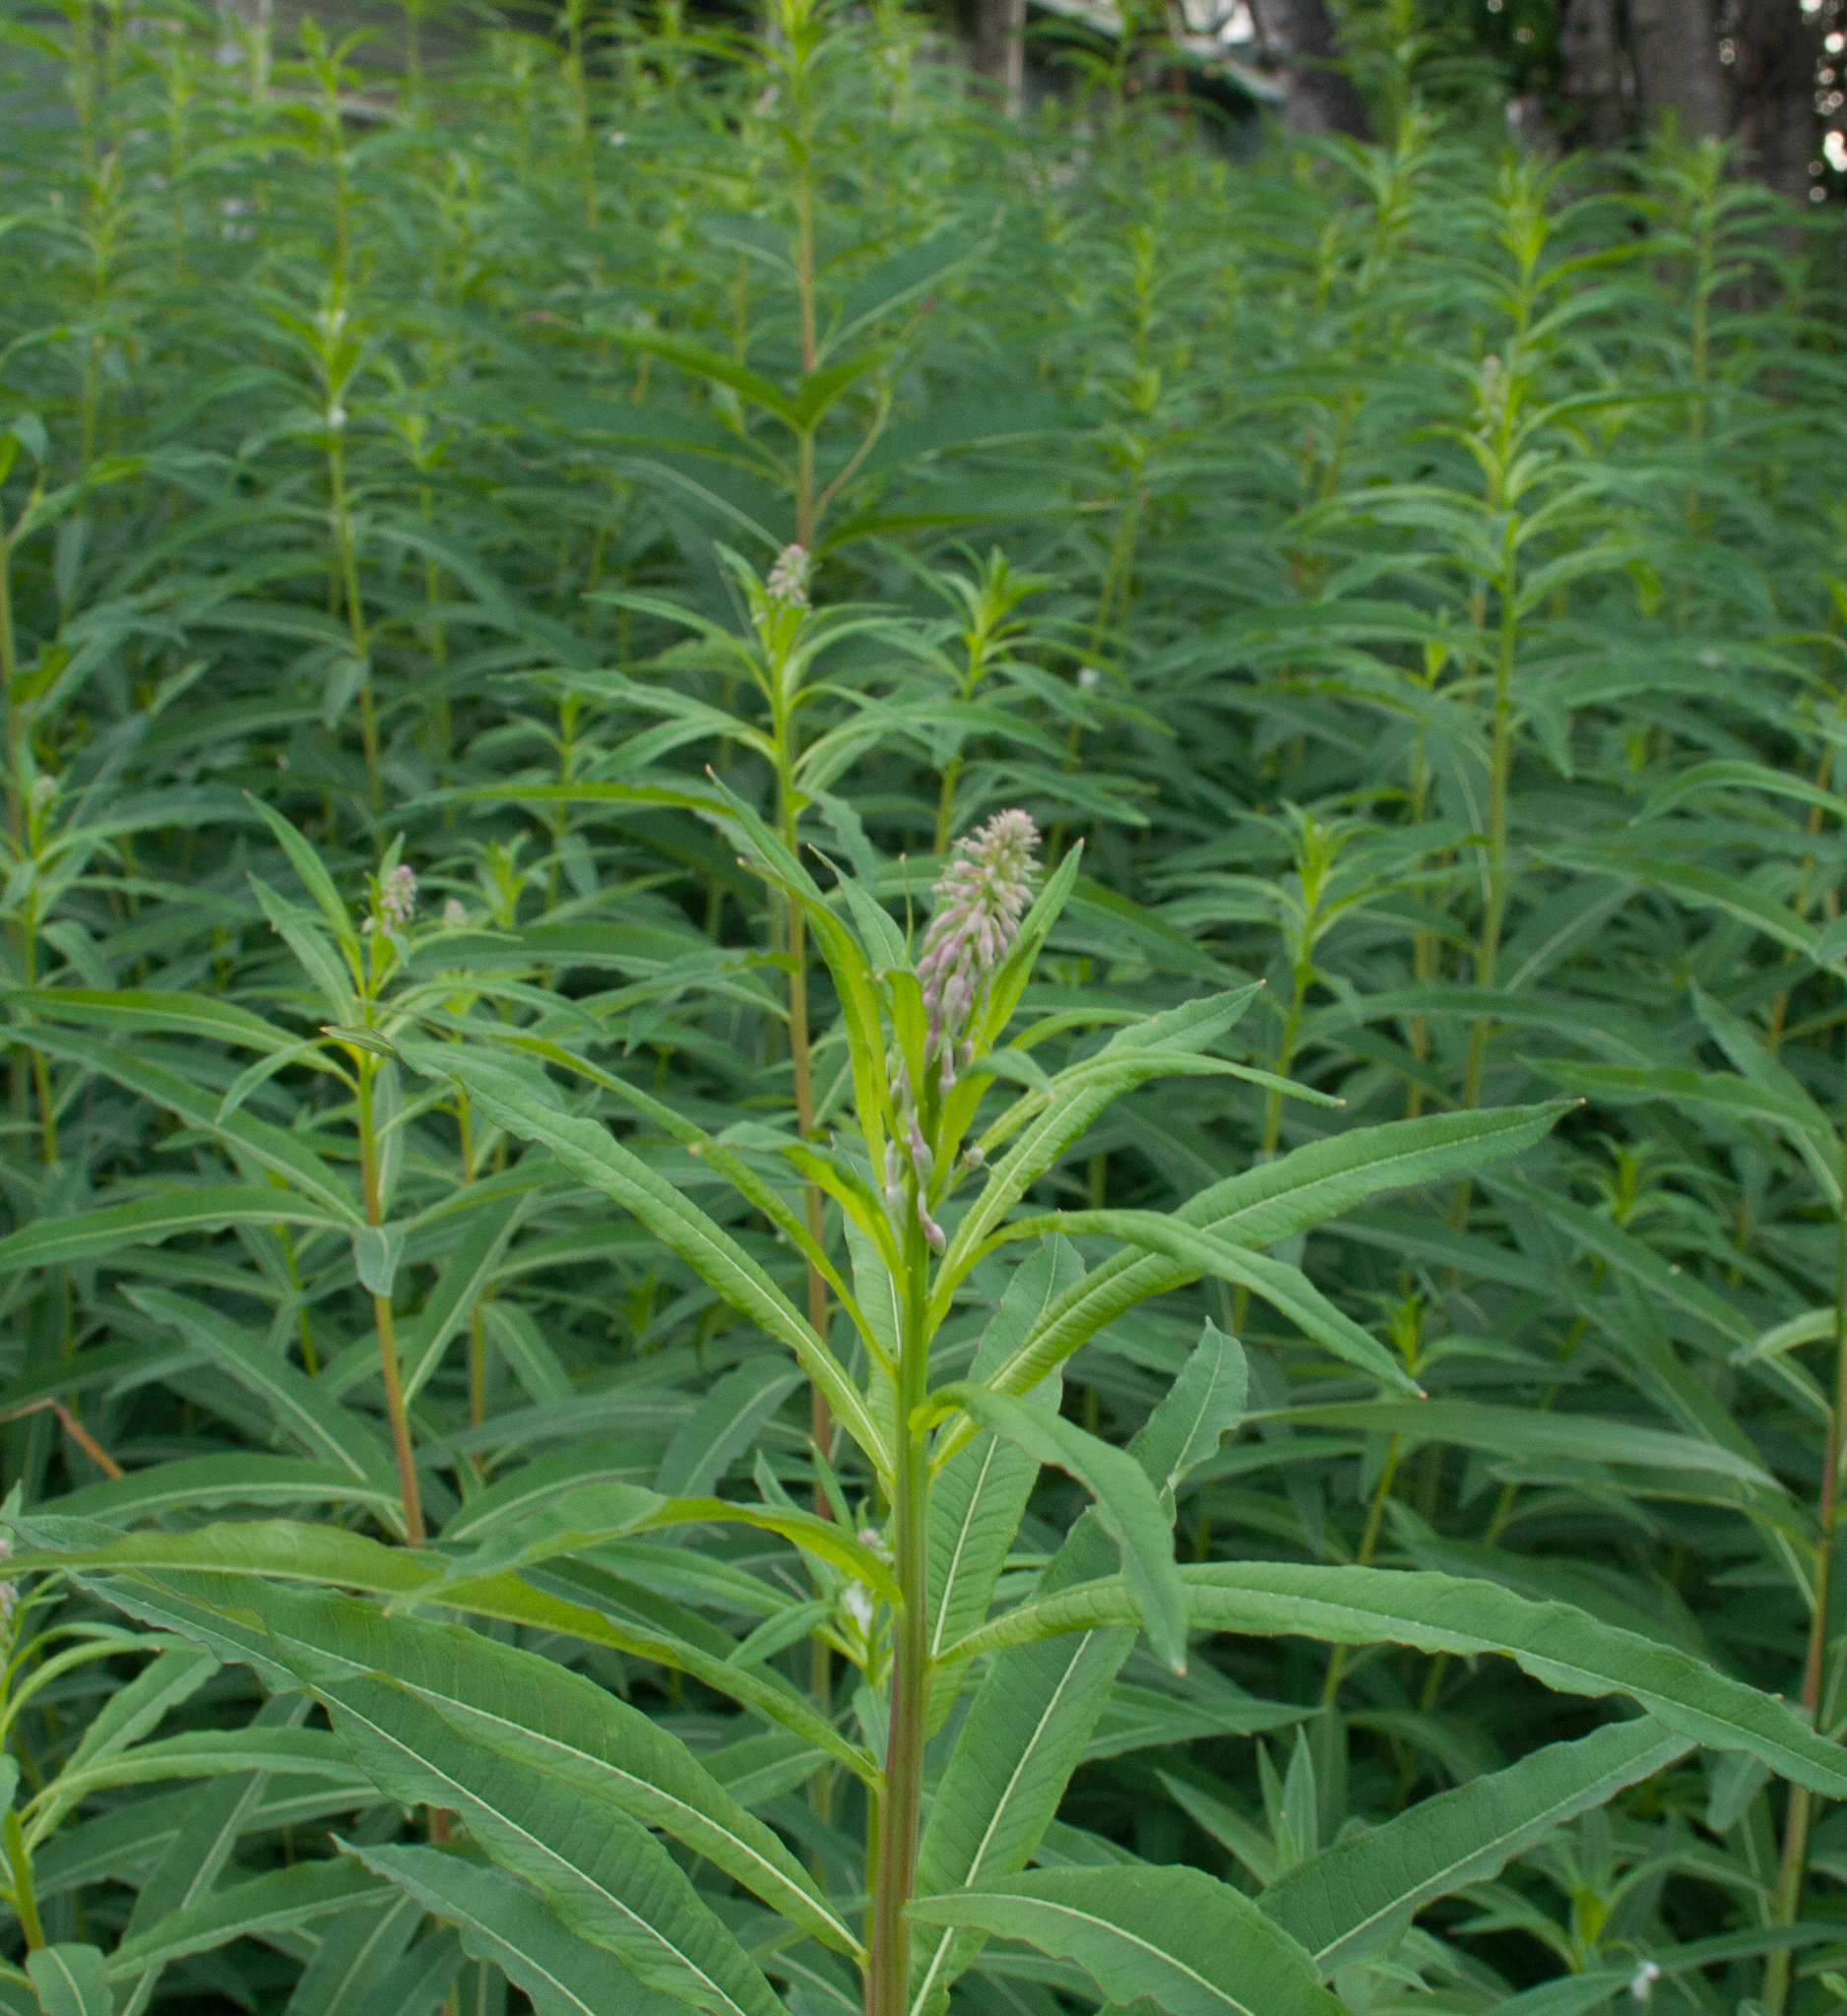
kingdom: Plantae
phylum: Tracheophyta
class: Magnoliopsida
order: Myrtales
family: Onagraceae
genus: Chamaenerion
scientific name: Chamaenerion angustifolium
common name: Fireweed
